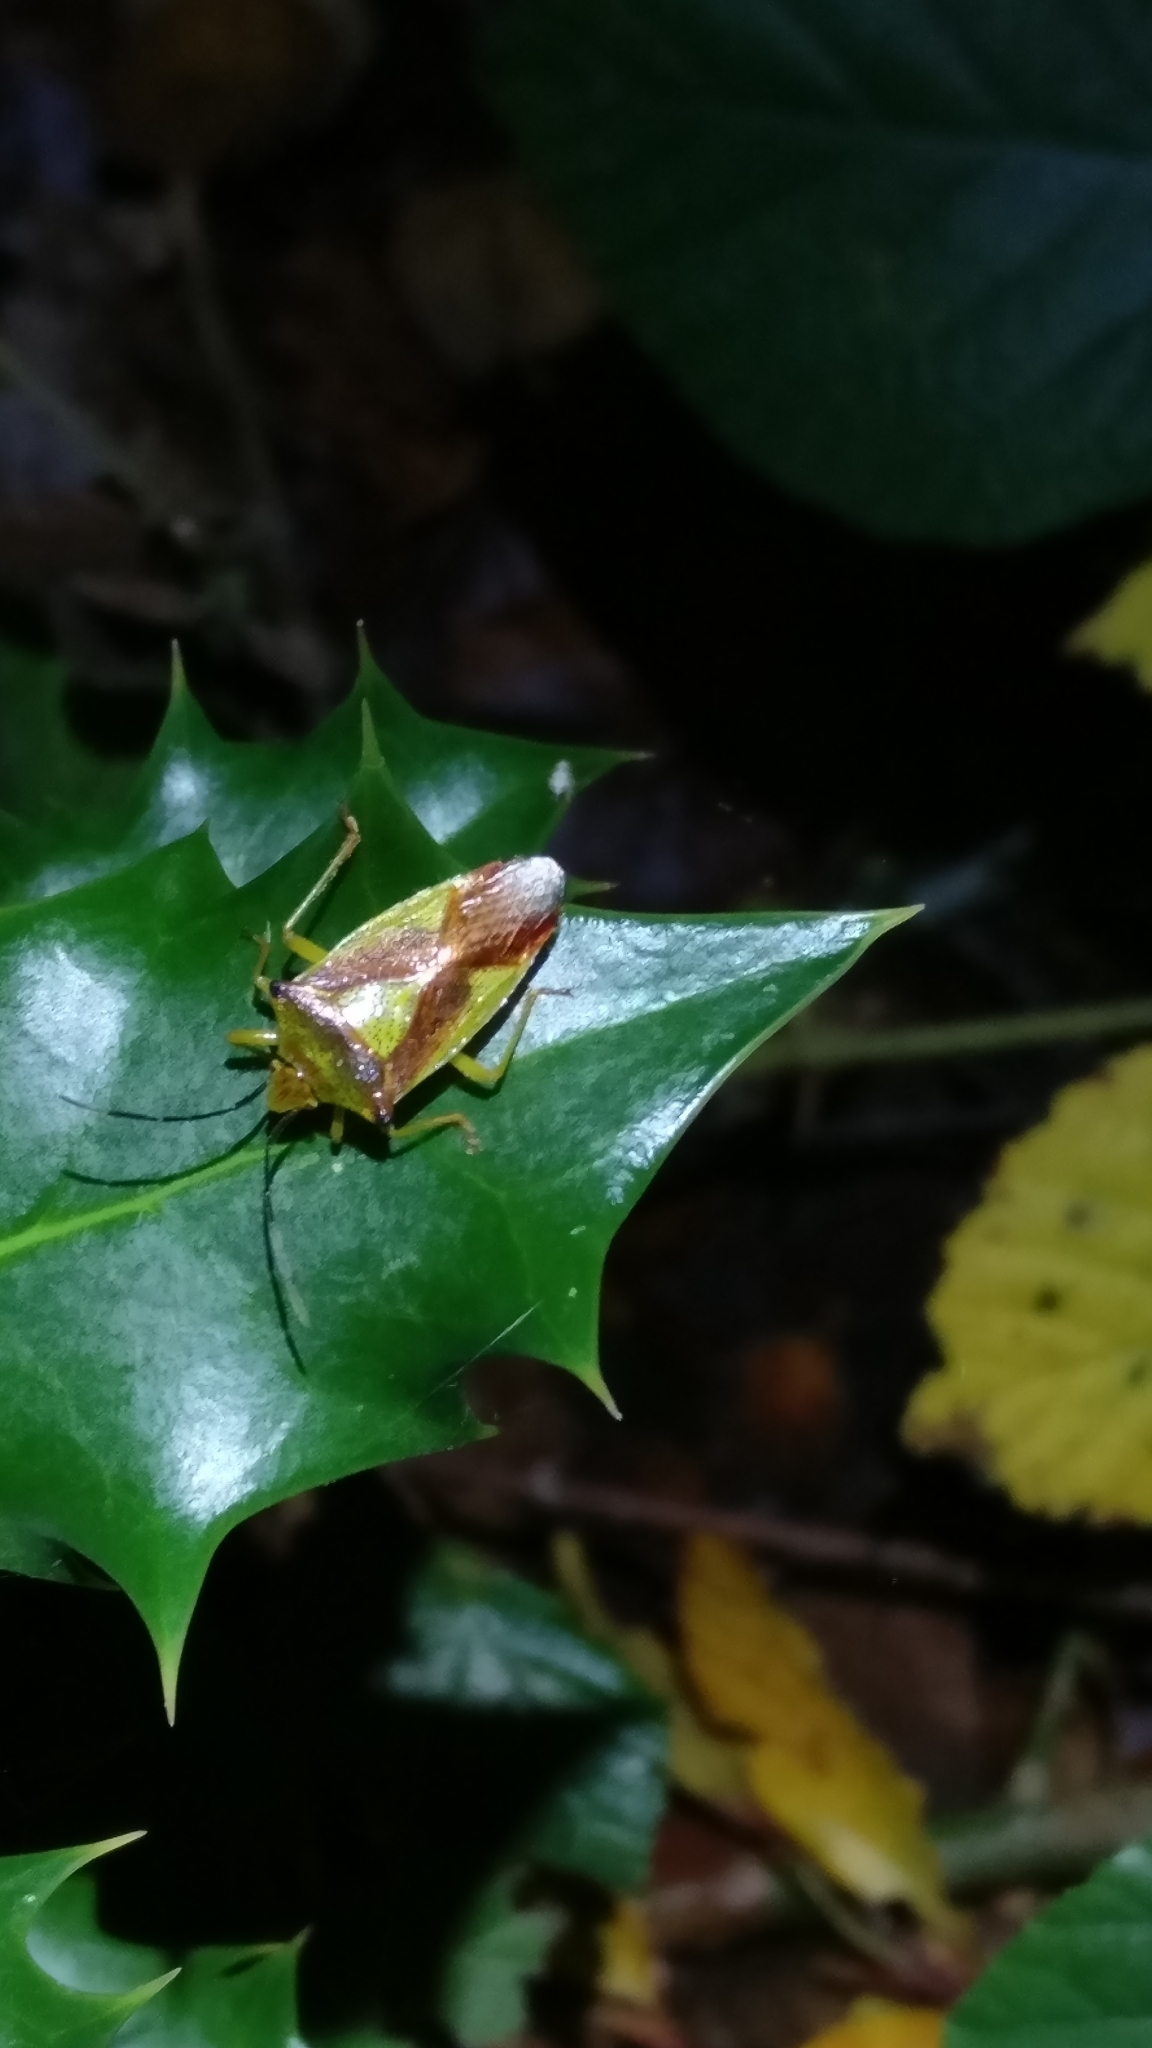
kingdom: Animalia
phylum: Arthropoda
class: Insecta
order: Hemiptera
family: Acanthosomatidae
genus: Acanthosoma
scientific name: Acanthosoma haemorrhoidale
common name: Hawthorn shieldbug
